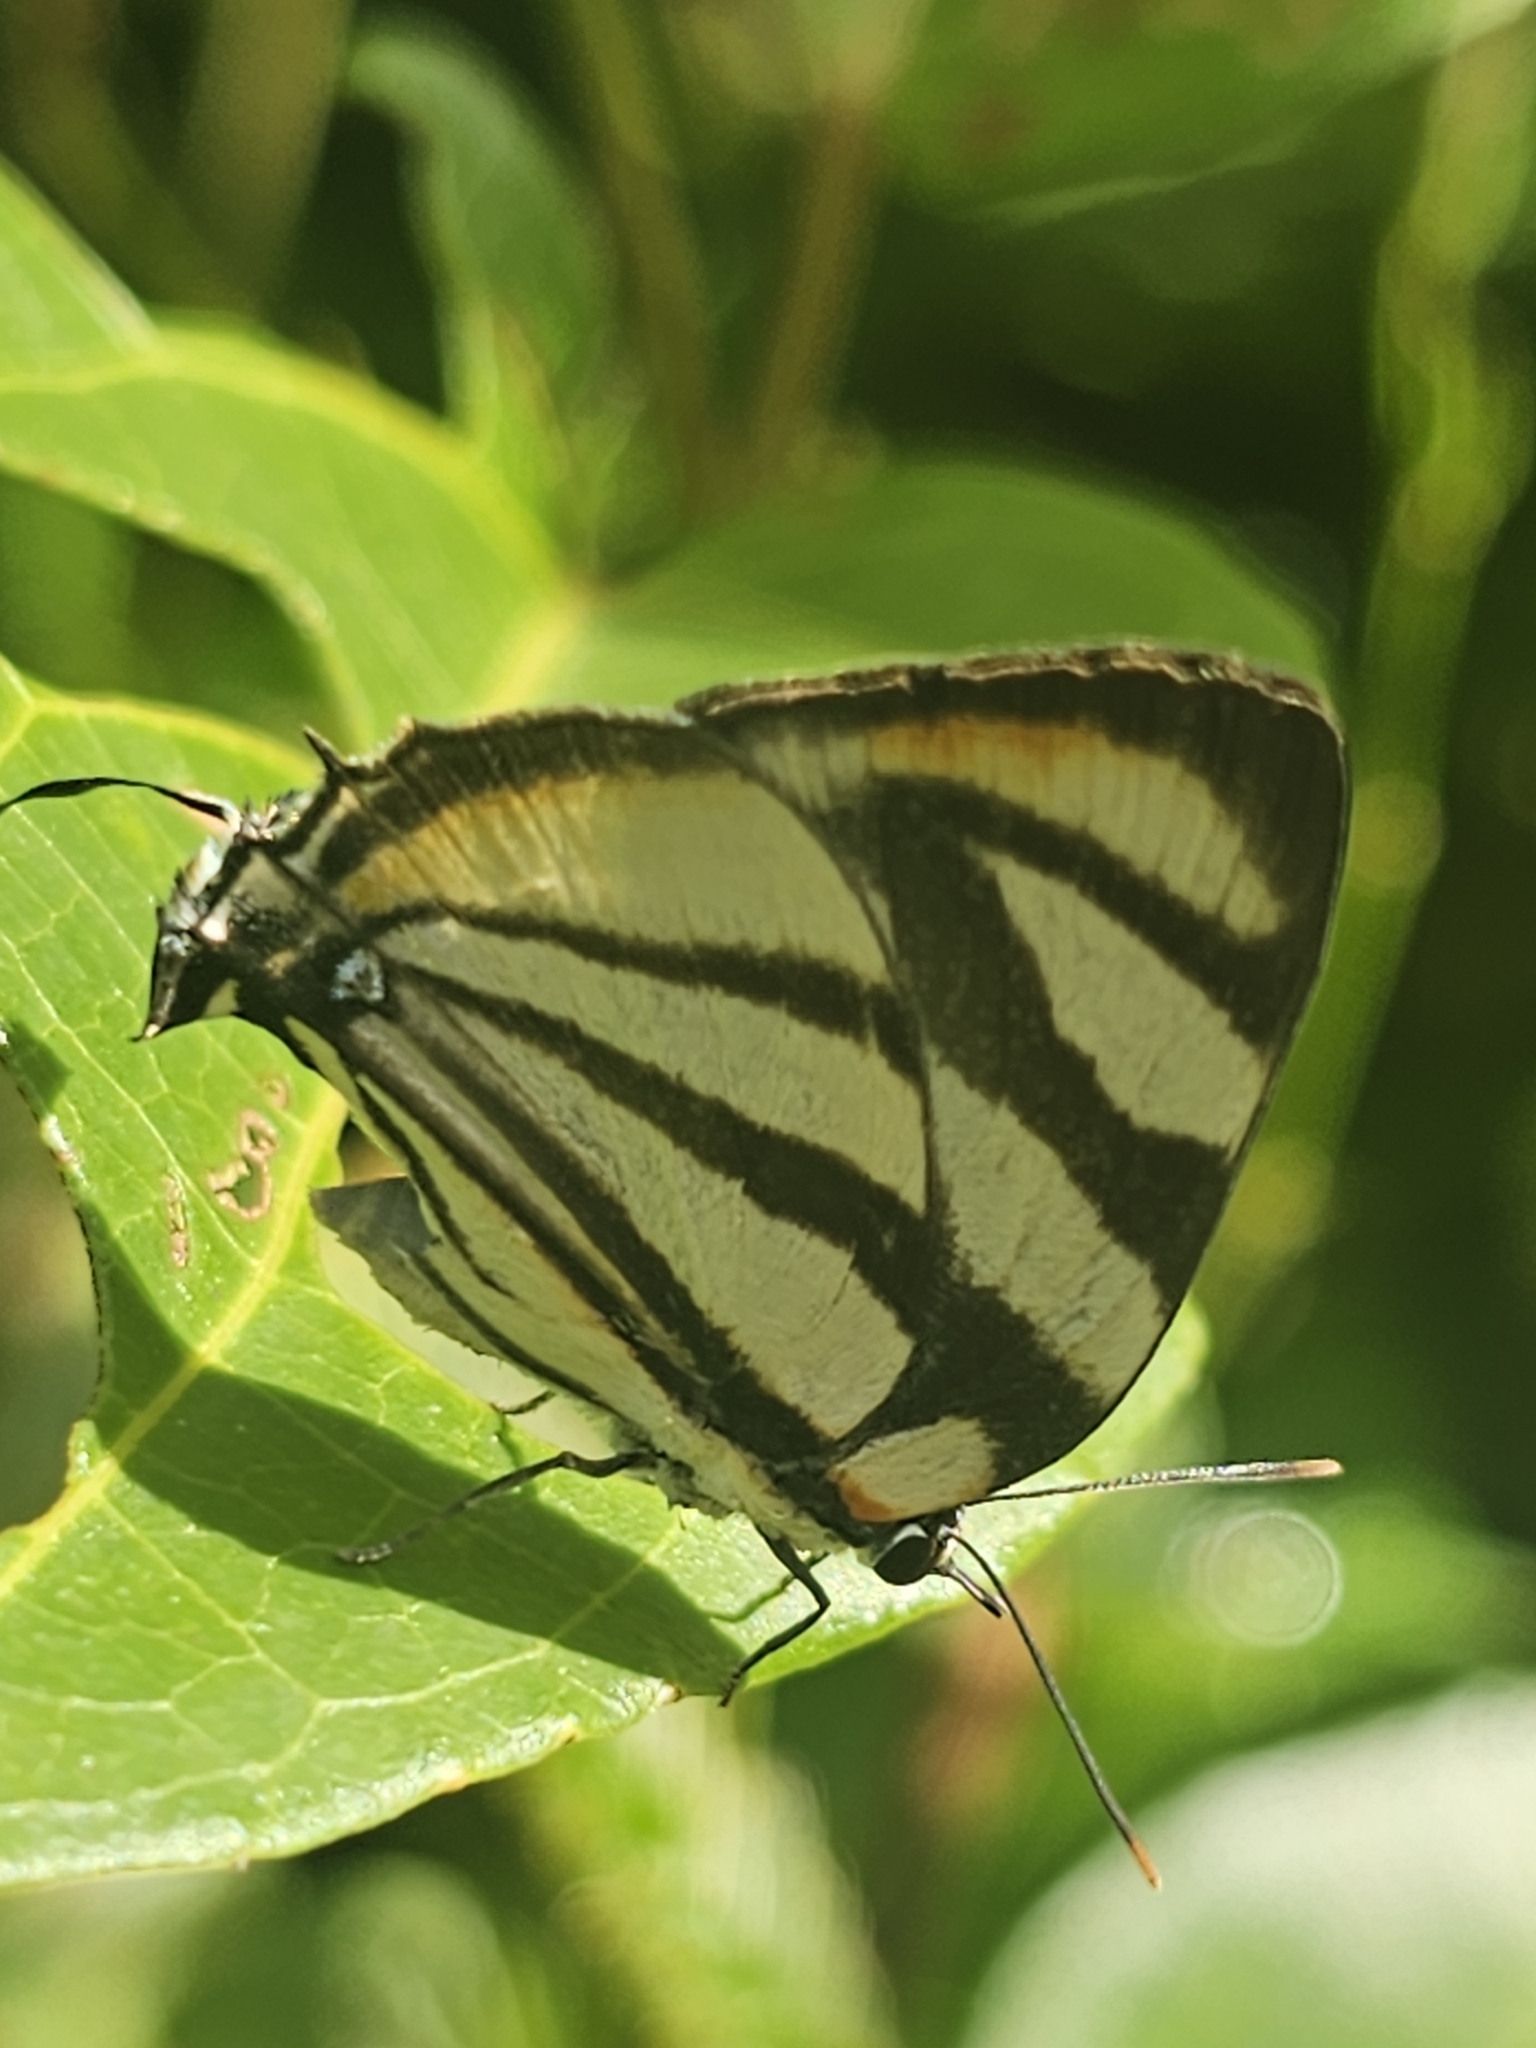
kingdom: Animalia
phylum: Arthropoda
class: Insecta
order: Lepidoptera
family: Lycaenidae
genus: Cycnus
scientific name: Cycnus phaleros
